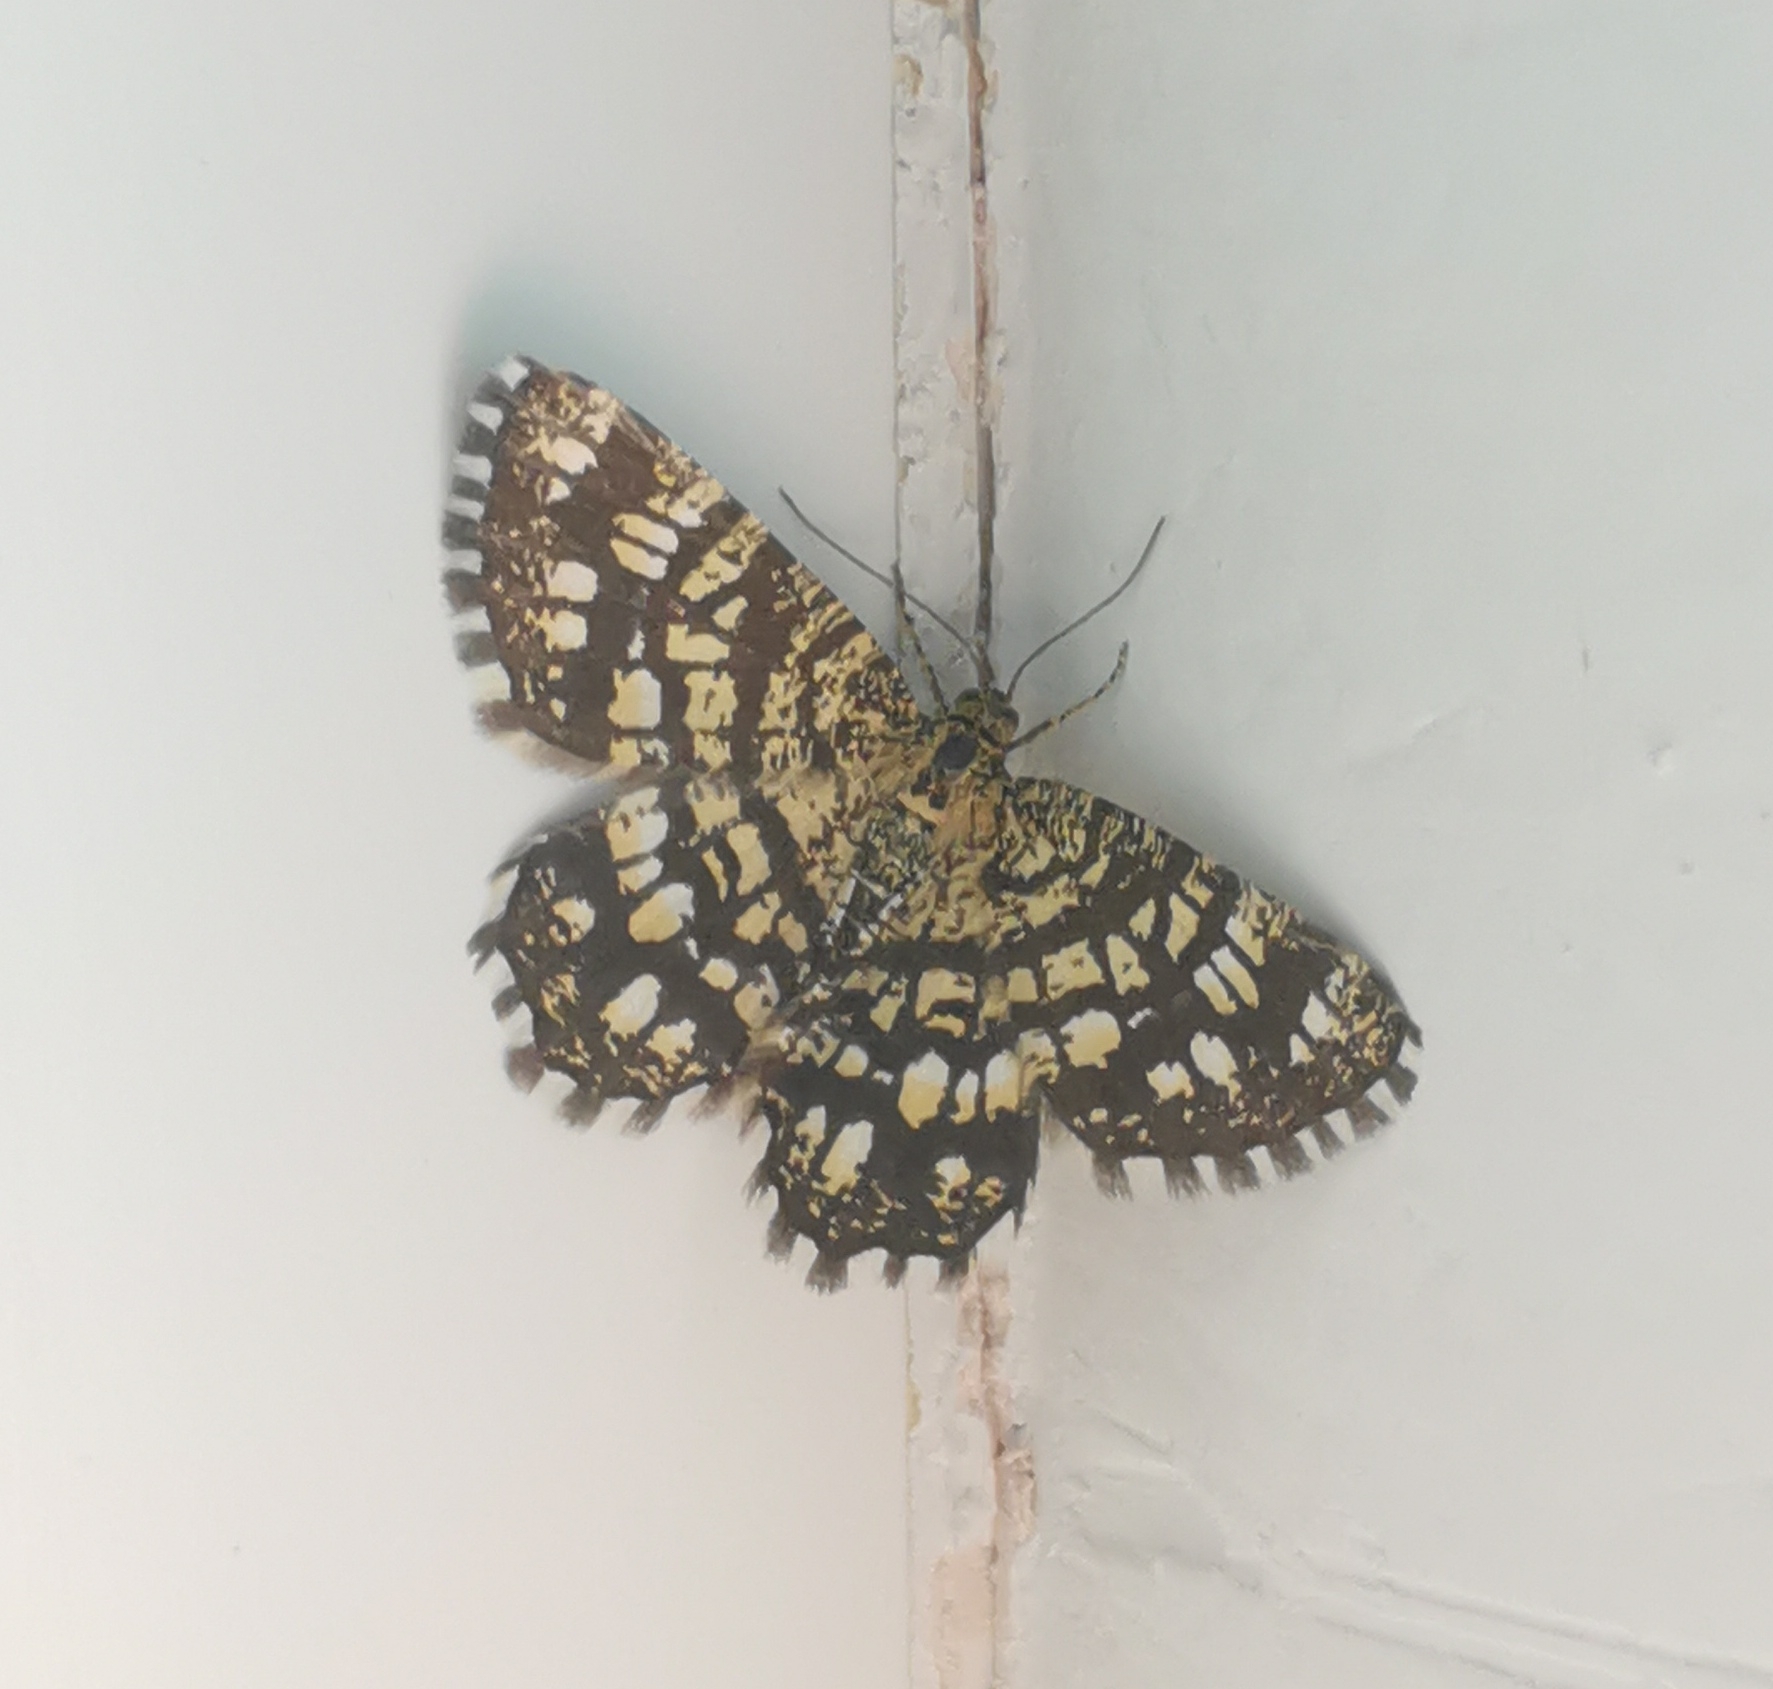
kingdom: Animalia
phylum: Arthropoda
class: Insecta
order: Lepidoptera
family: Geometridae
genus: Chiasmia
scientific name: Chiasmia clathrata
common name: Latticed heath
